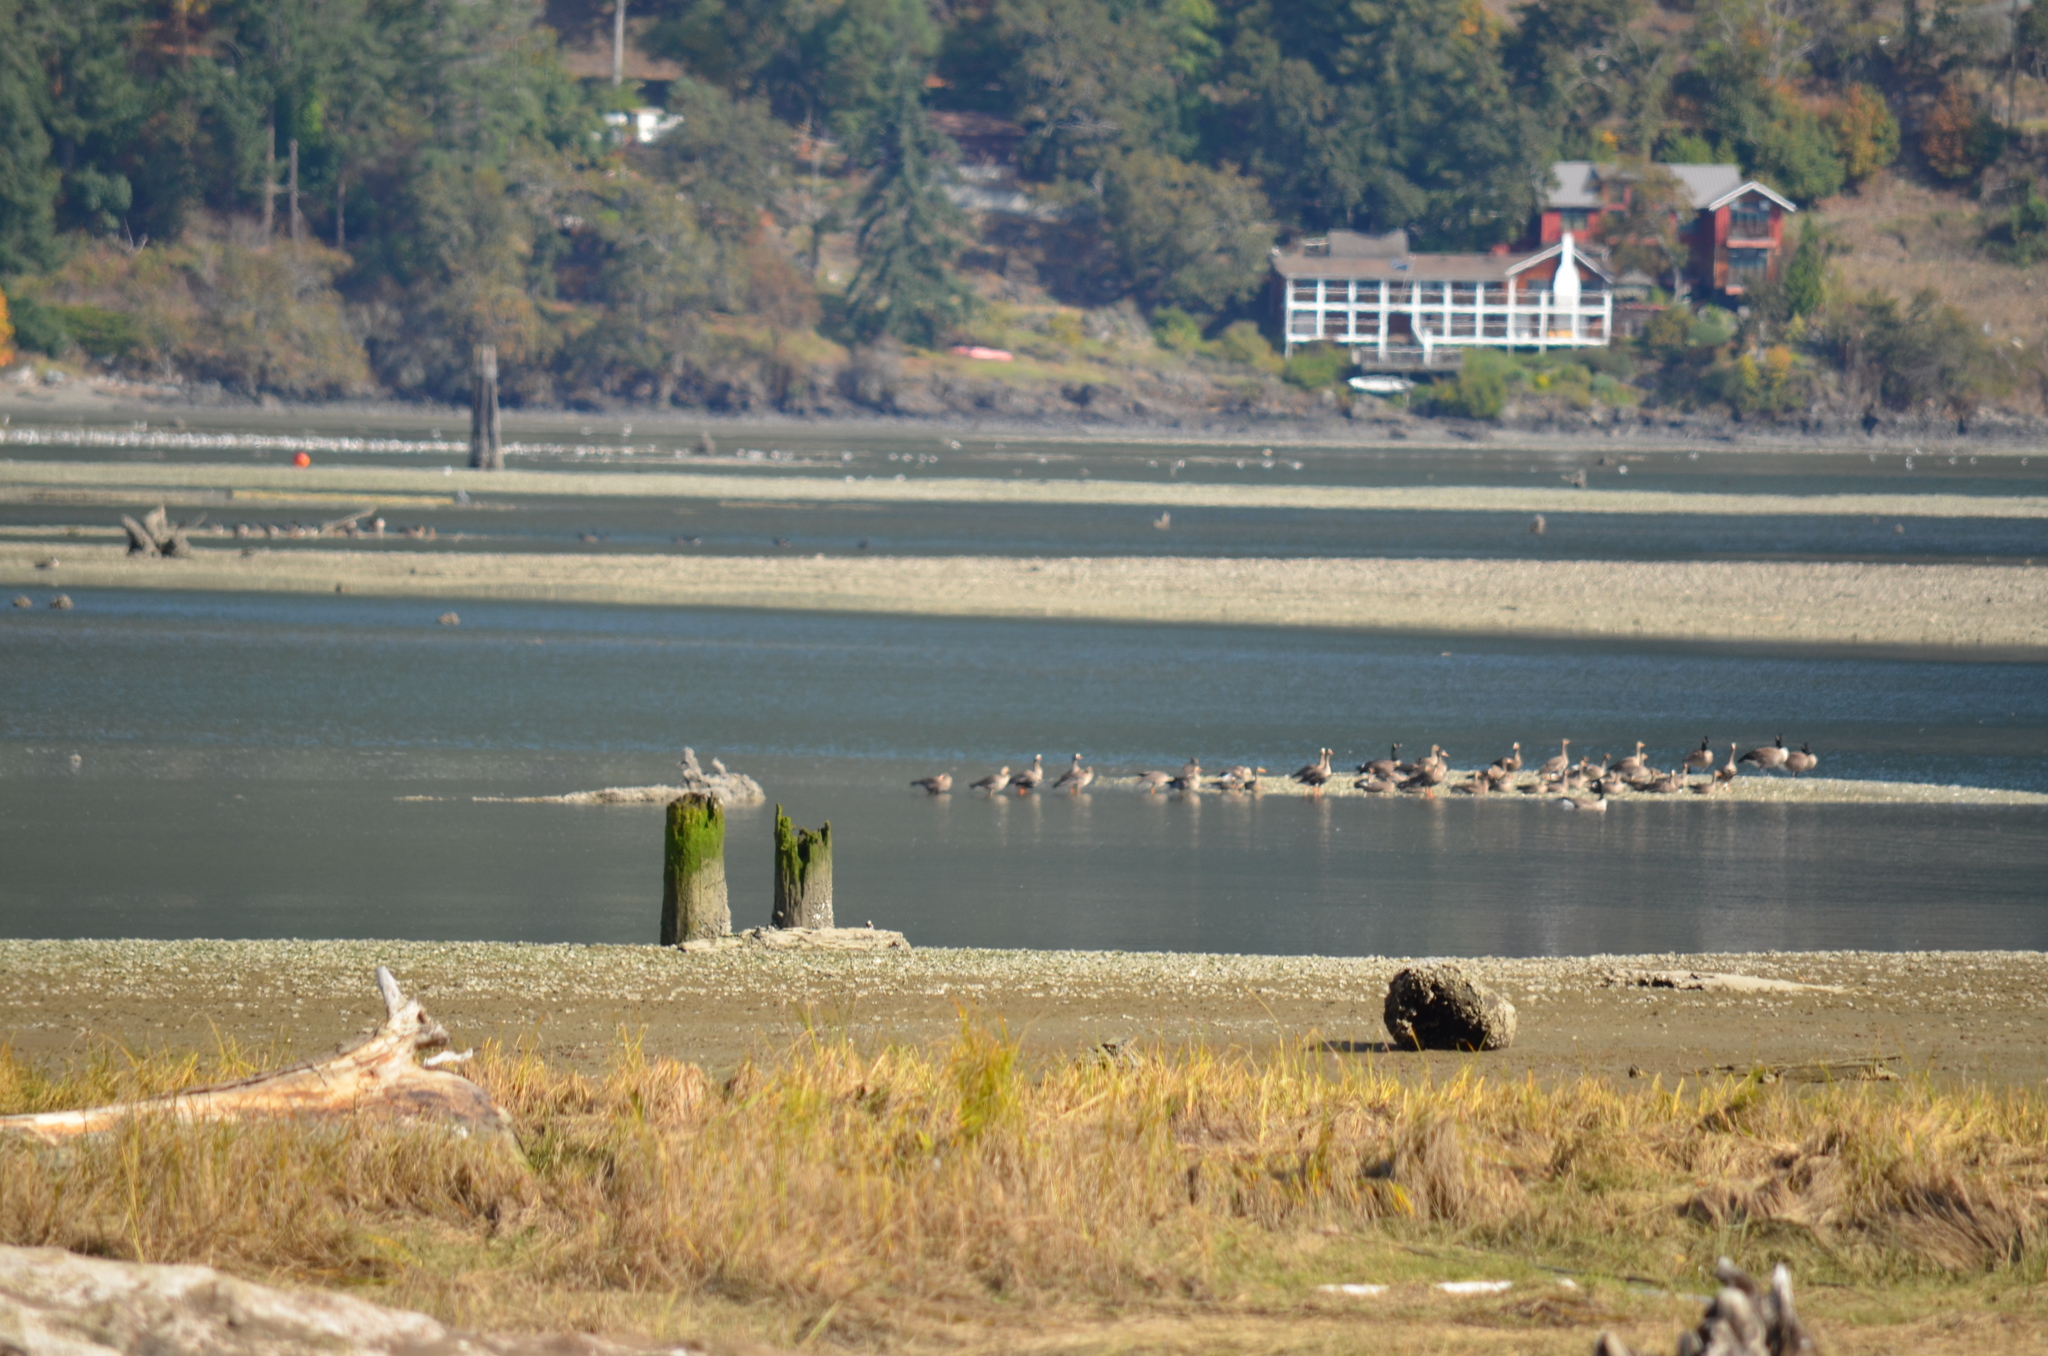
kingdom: Animalia
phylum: Chordata
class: Aves
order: Anseriformes
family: Anatidae
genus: Anser
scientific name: Anser albifrons
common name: Greater white-fronted goose
